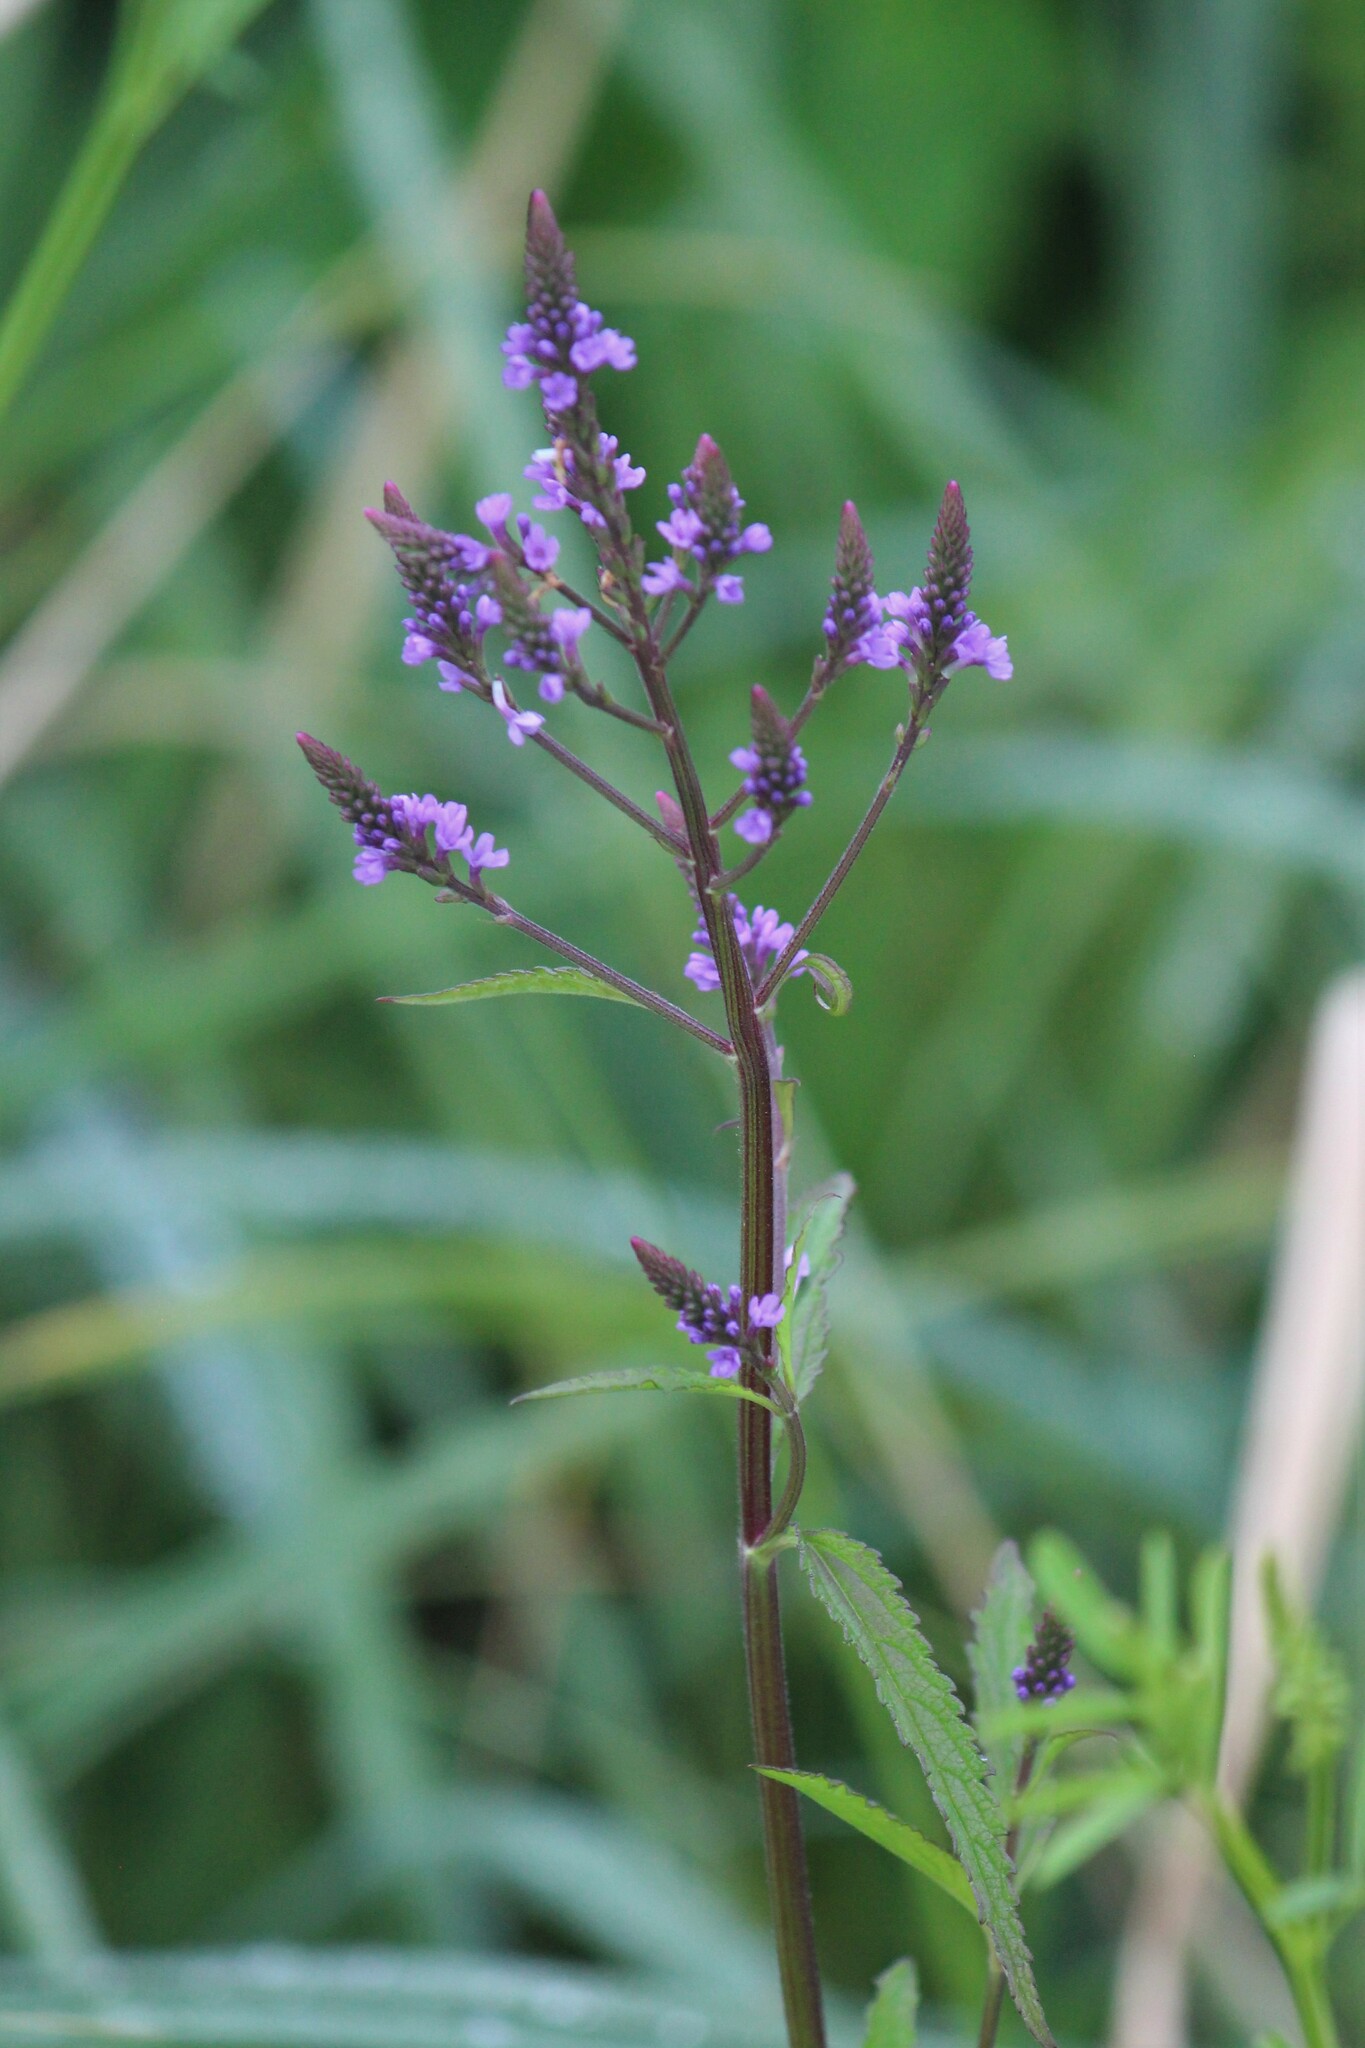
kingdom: Plantae
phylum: Tracheophyta
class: Magnoliopsida
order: Lamiales
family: Verbenaceae
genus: Verbena
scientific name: Verbena hastata
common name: American blue vervain
